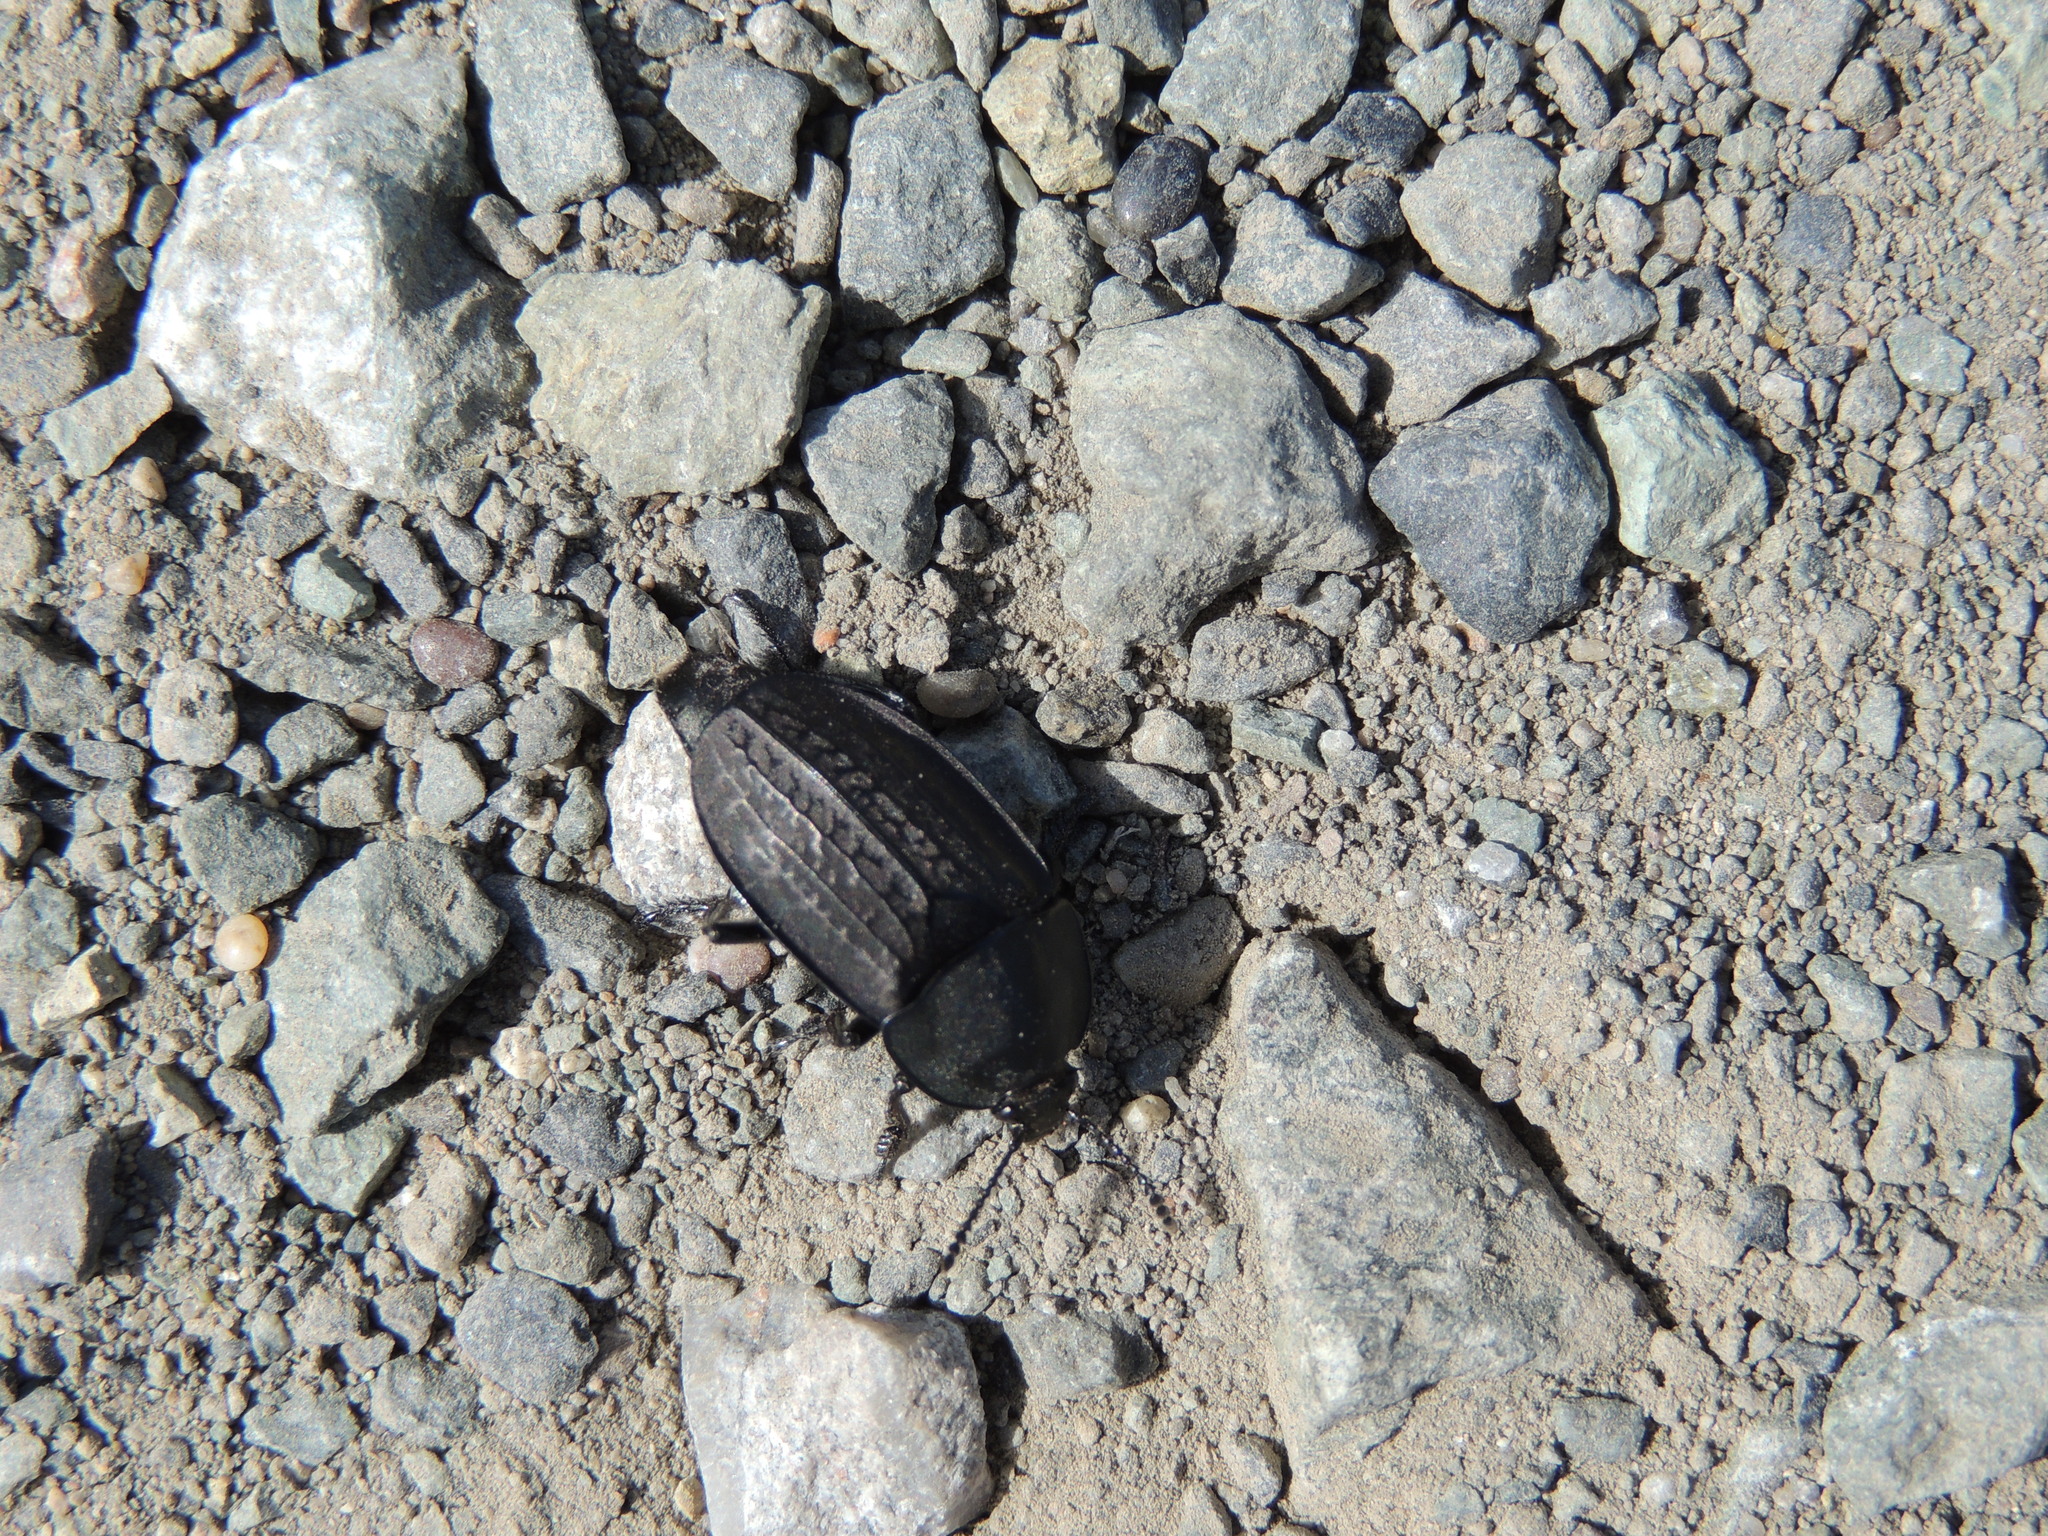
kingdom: Animalia
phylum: Arthropoda
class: Insecta
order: Coleoptera
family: Staphylinidae
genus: Heterosilpha
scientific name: Heterosilpha ramosa
